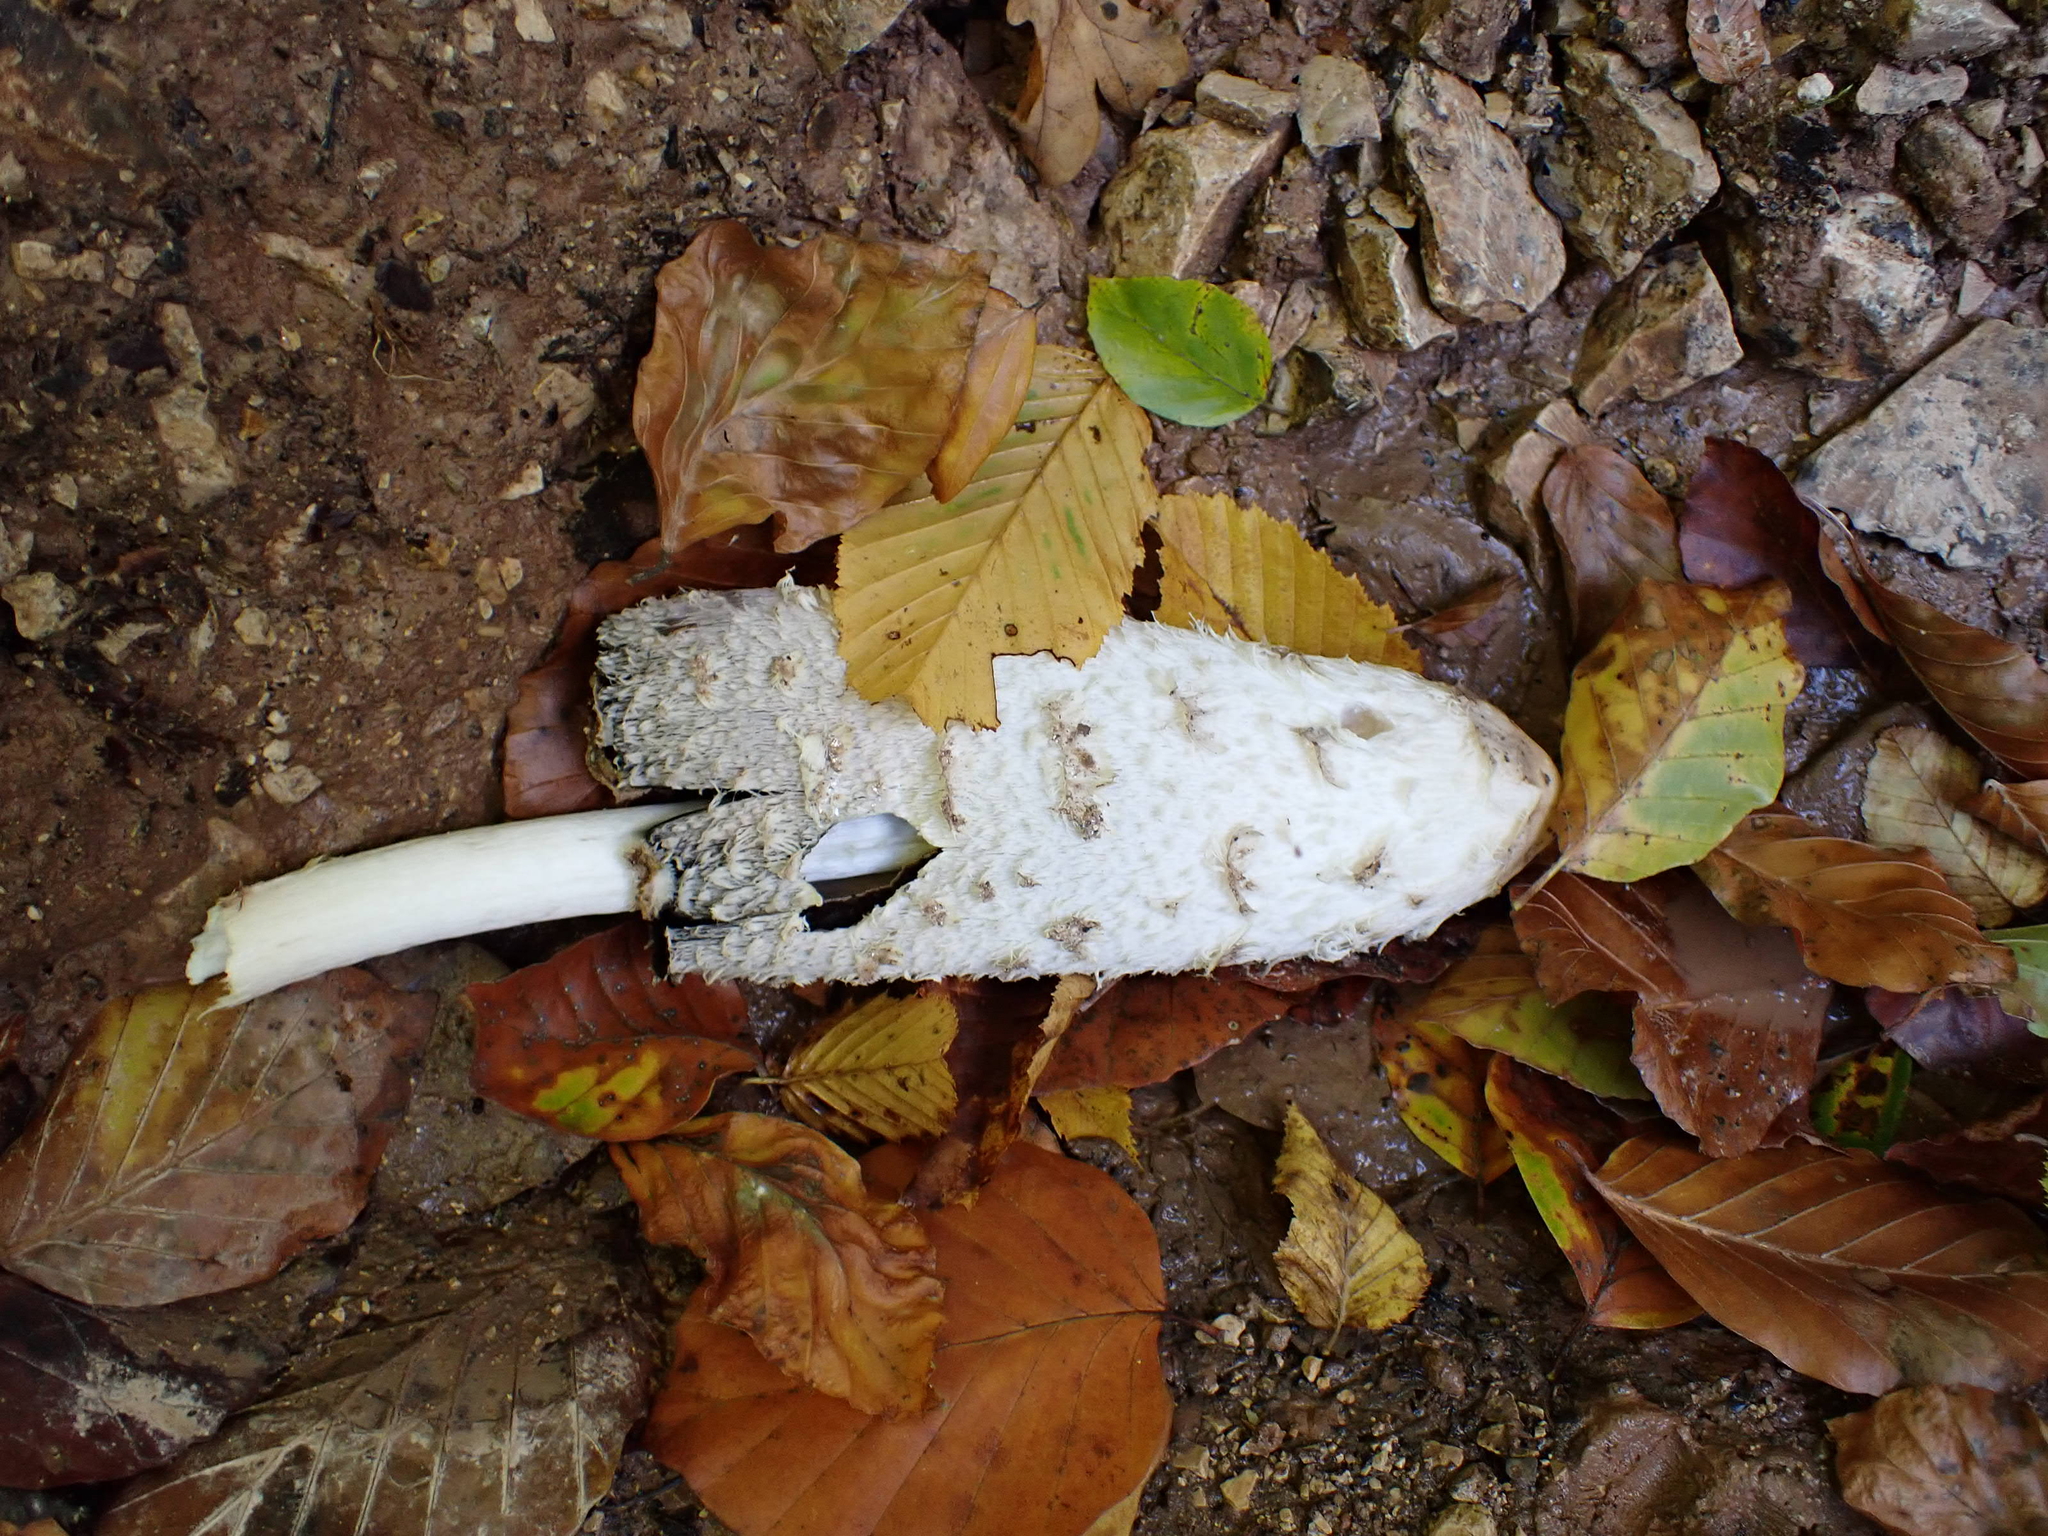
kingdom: Fungi
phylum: Basidiomycota
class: Agaricomycetes
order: Agaricales
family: Agaricaceae
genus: Coprinus
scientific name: Coprinus comatus
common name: Lawyer's wig
